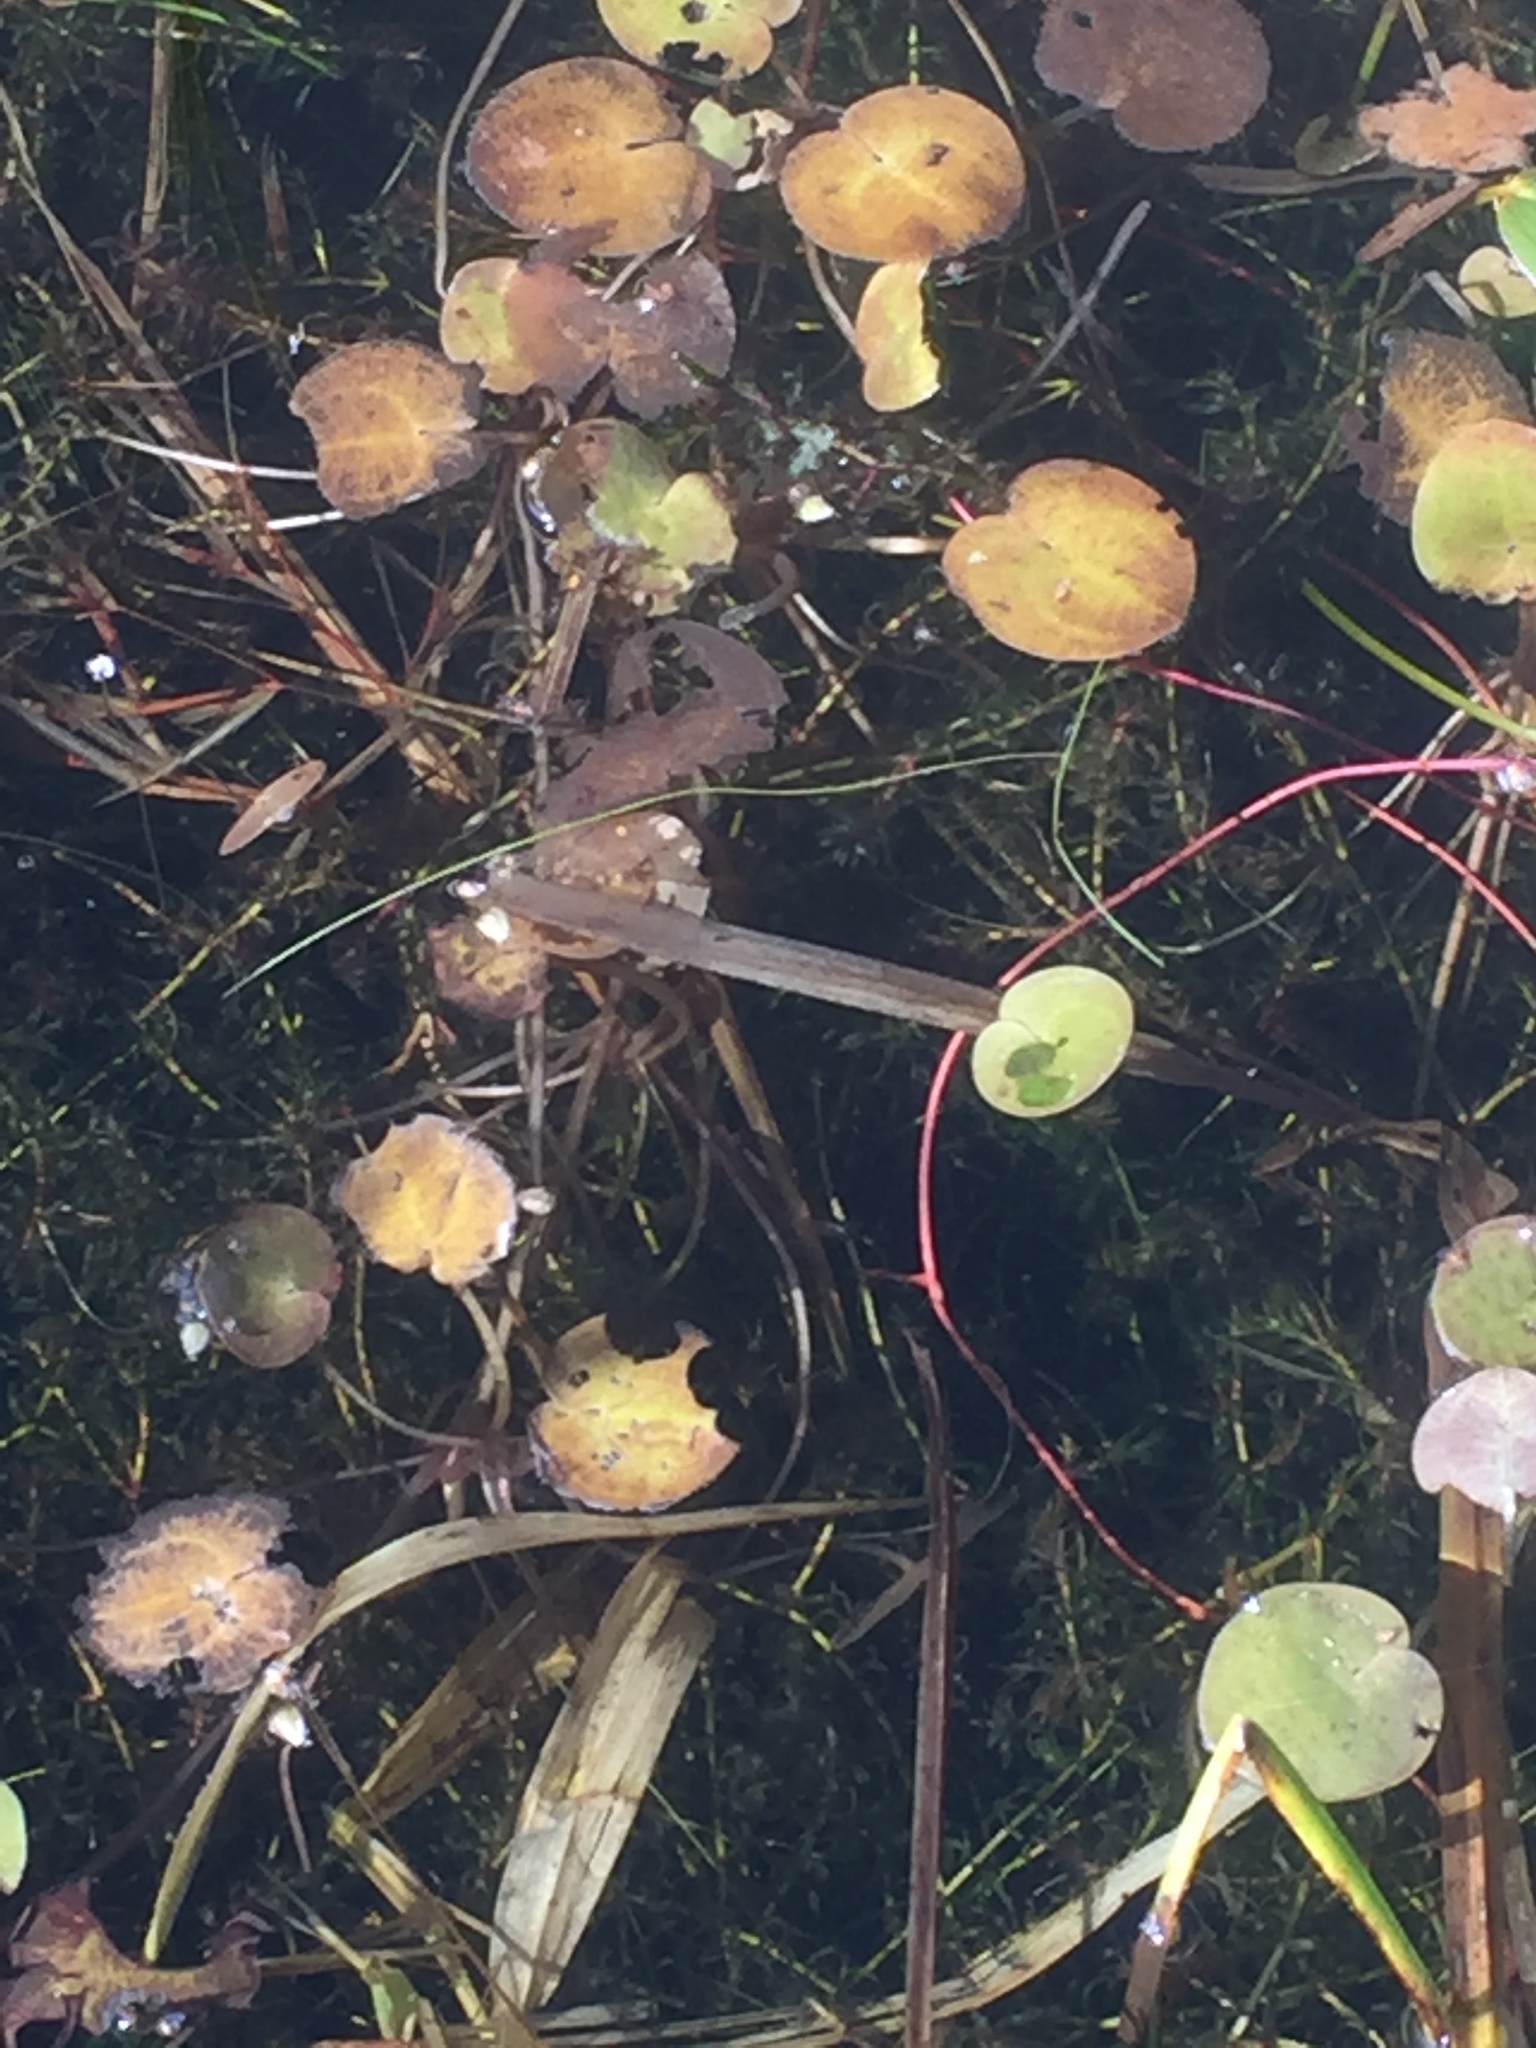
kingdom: Plantae
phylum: Tracheophyta
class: Liliopsida
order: Alismatales
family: Hydrocharitaceae
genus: Hydrocharis
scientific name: Hydrocharis morsus-ranae
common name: Frogbit
